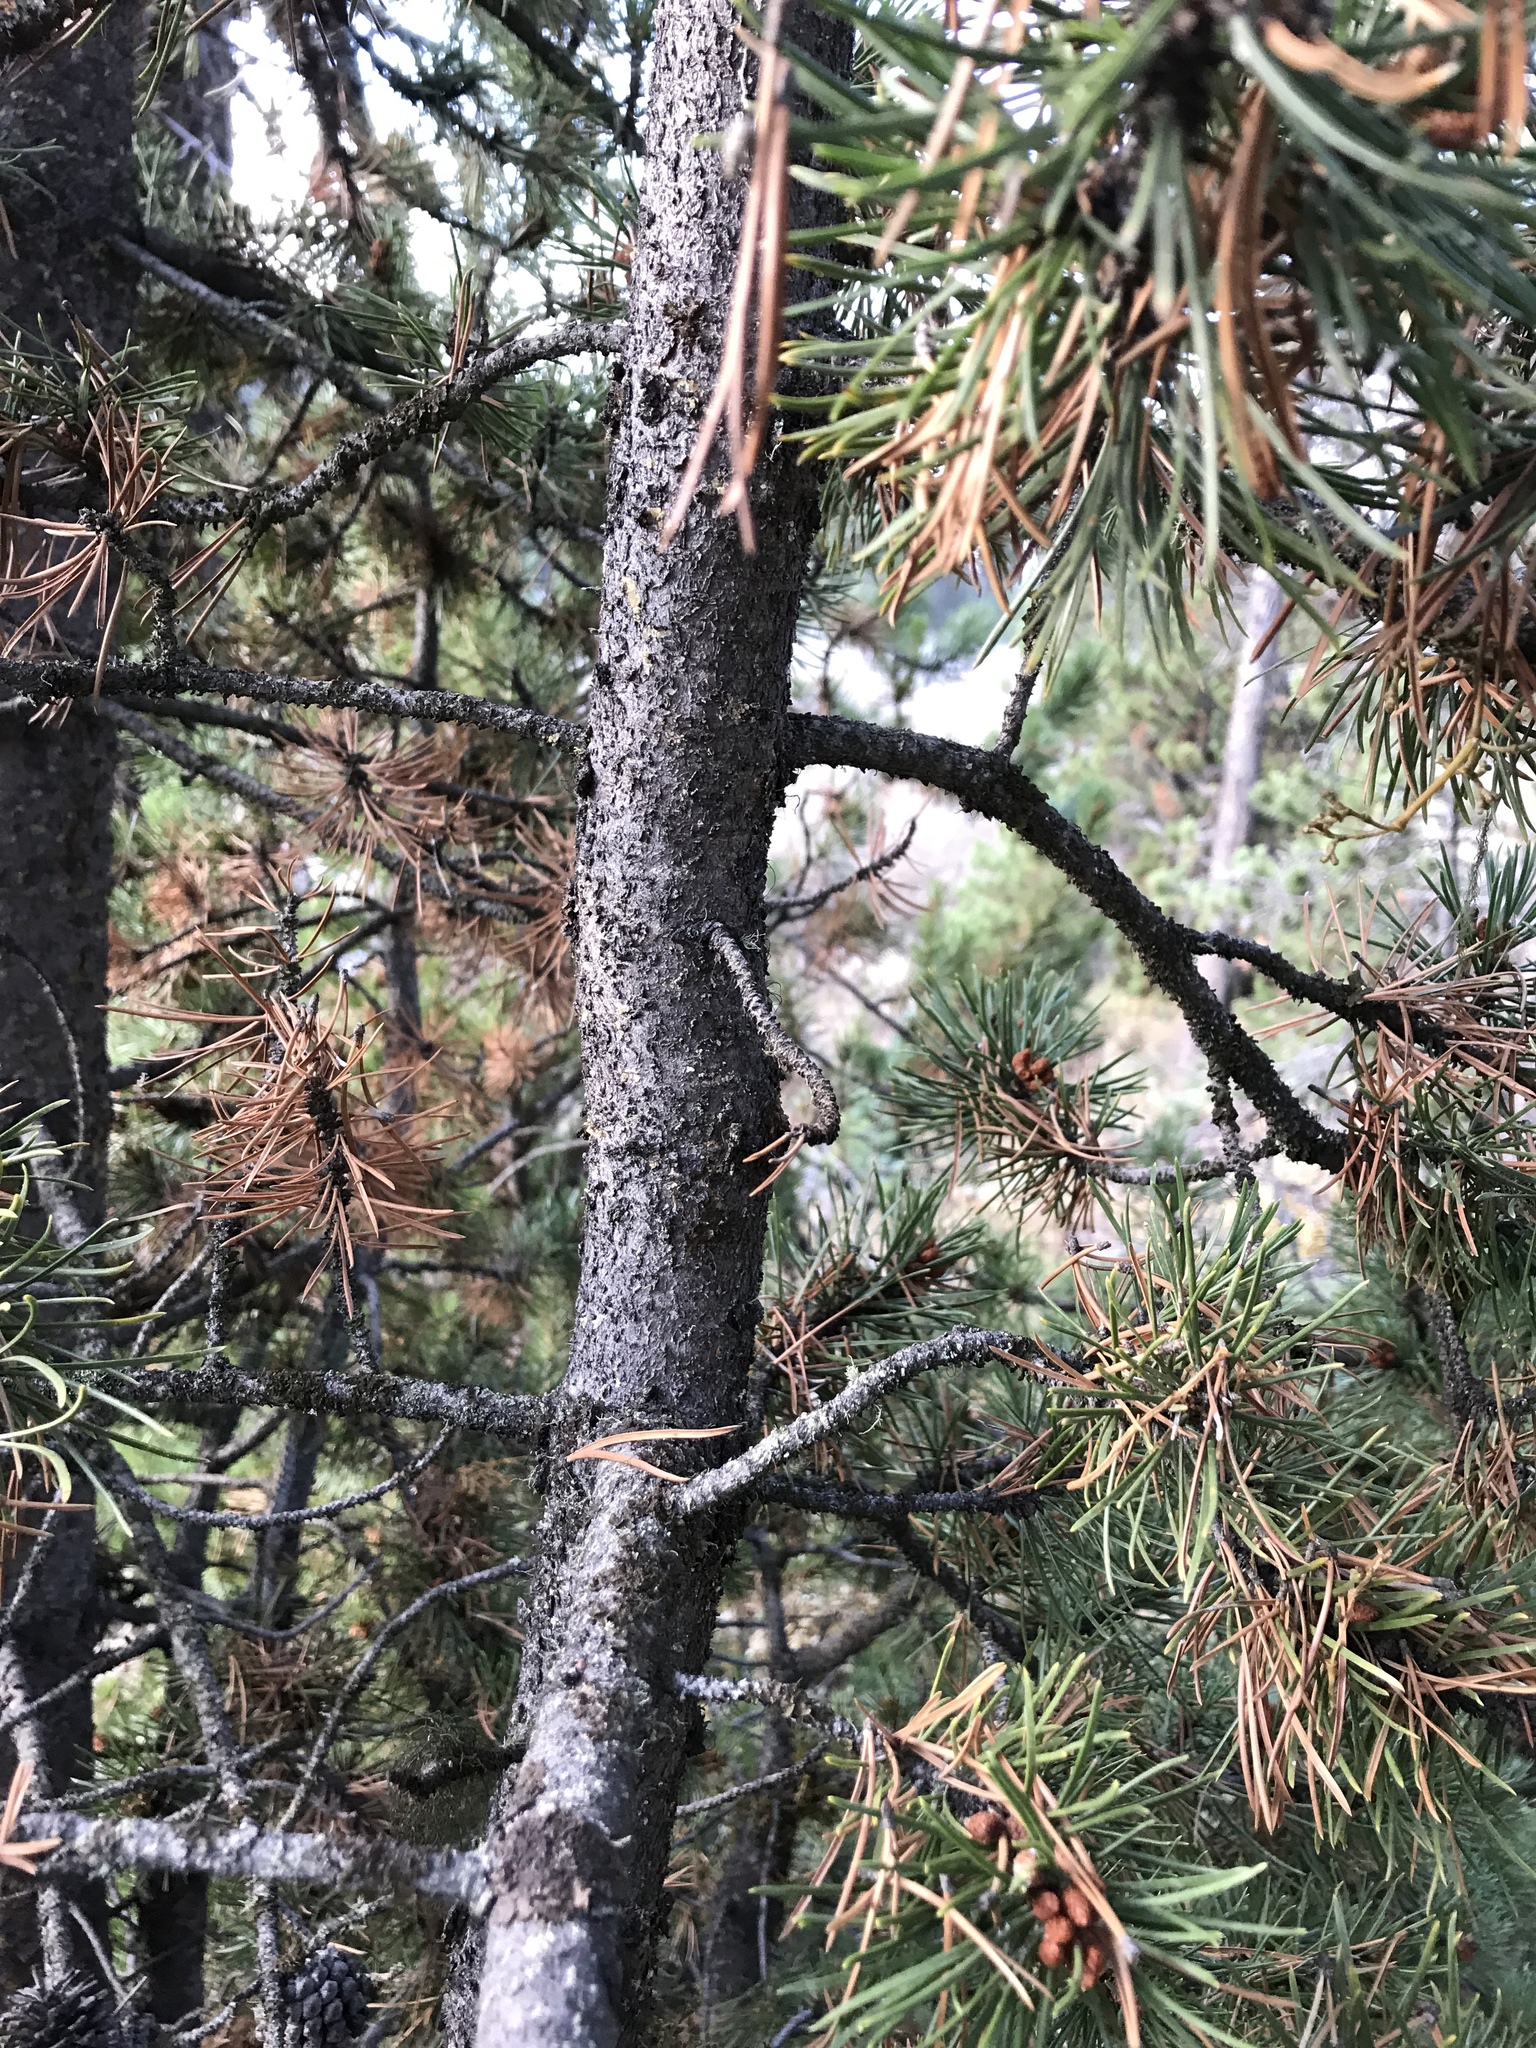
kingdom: Plantae
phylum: Tracheophyta
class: Pinopsida
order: Pinales
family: Pinaceae
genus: Pinus
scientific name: Pinus contorta
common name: Lodgepole pine
